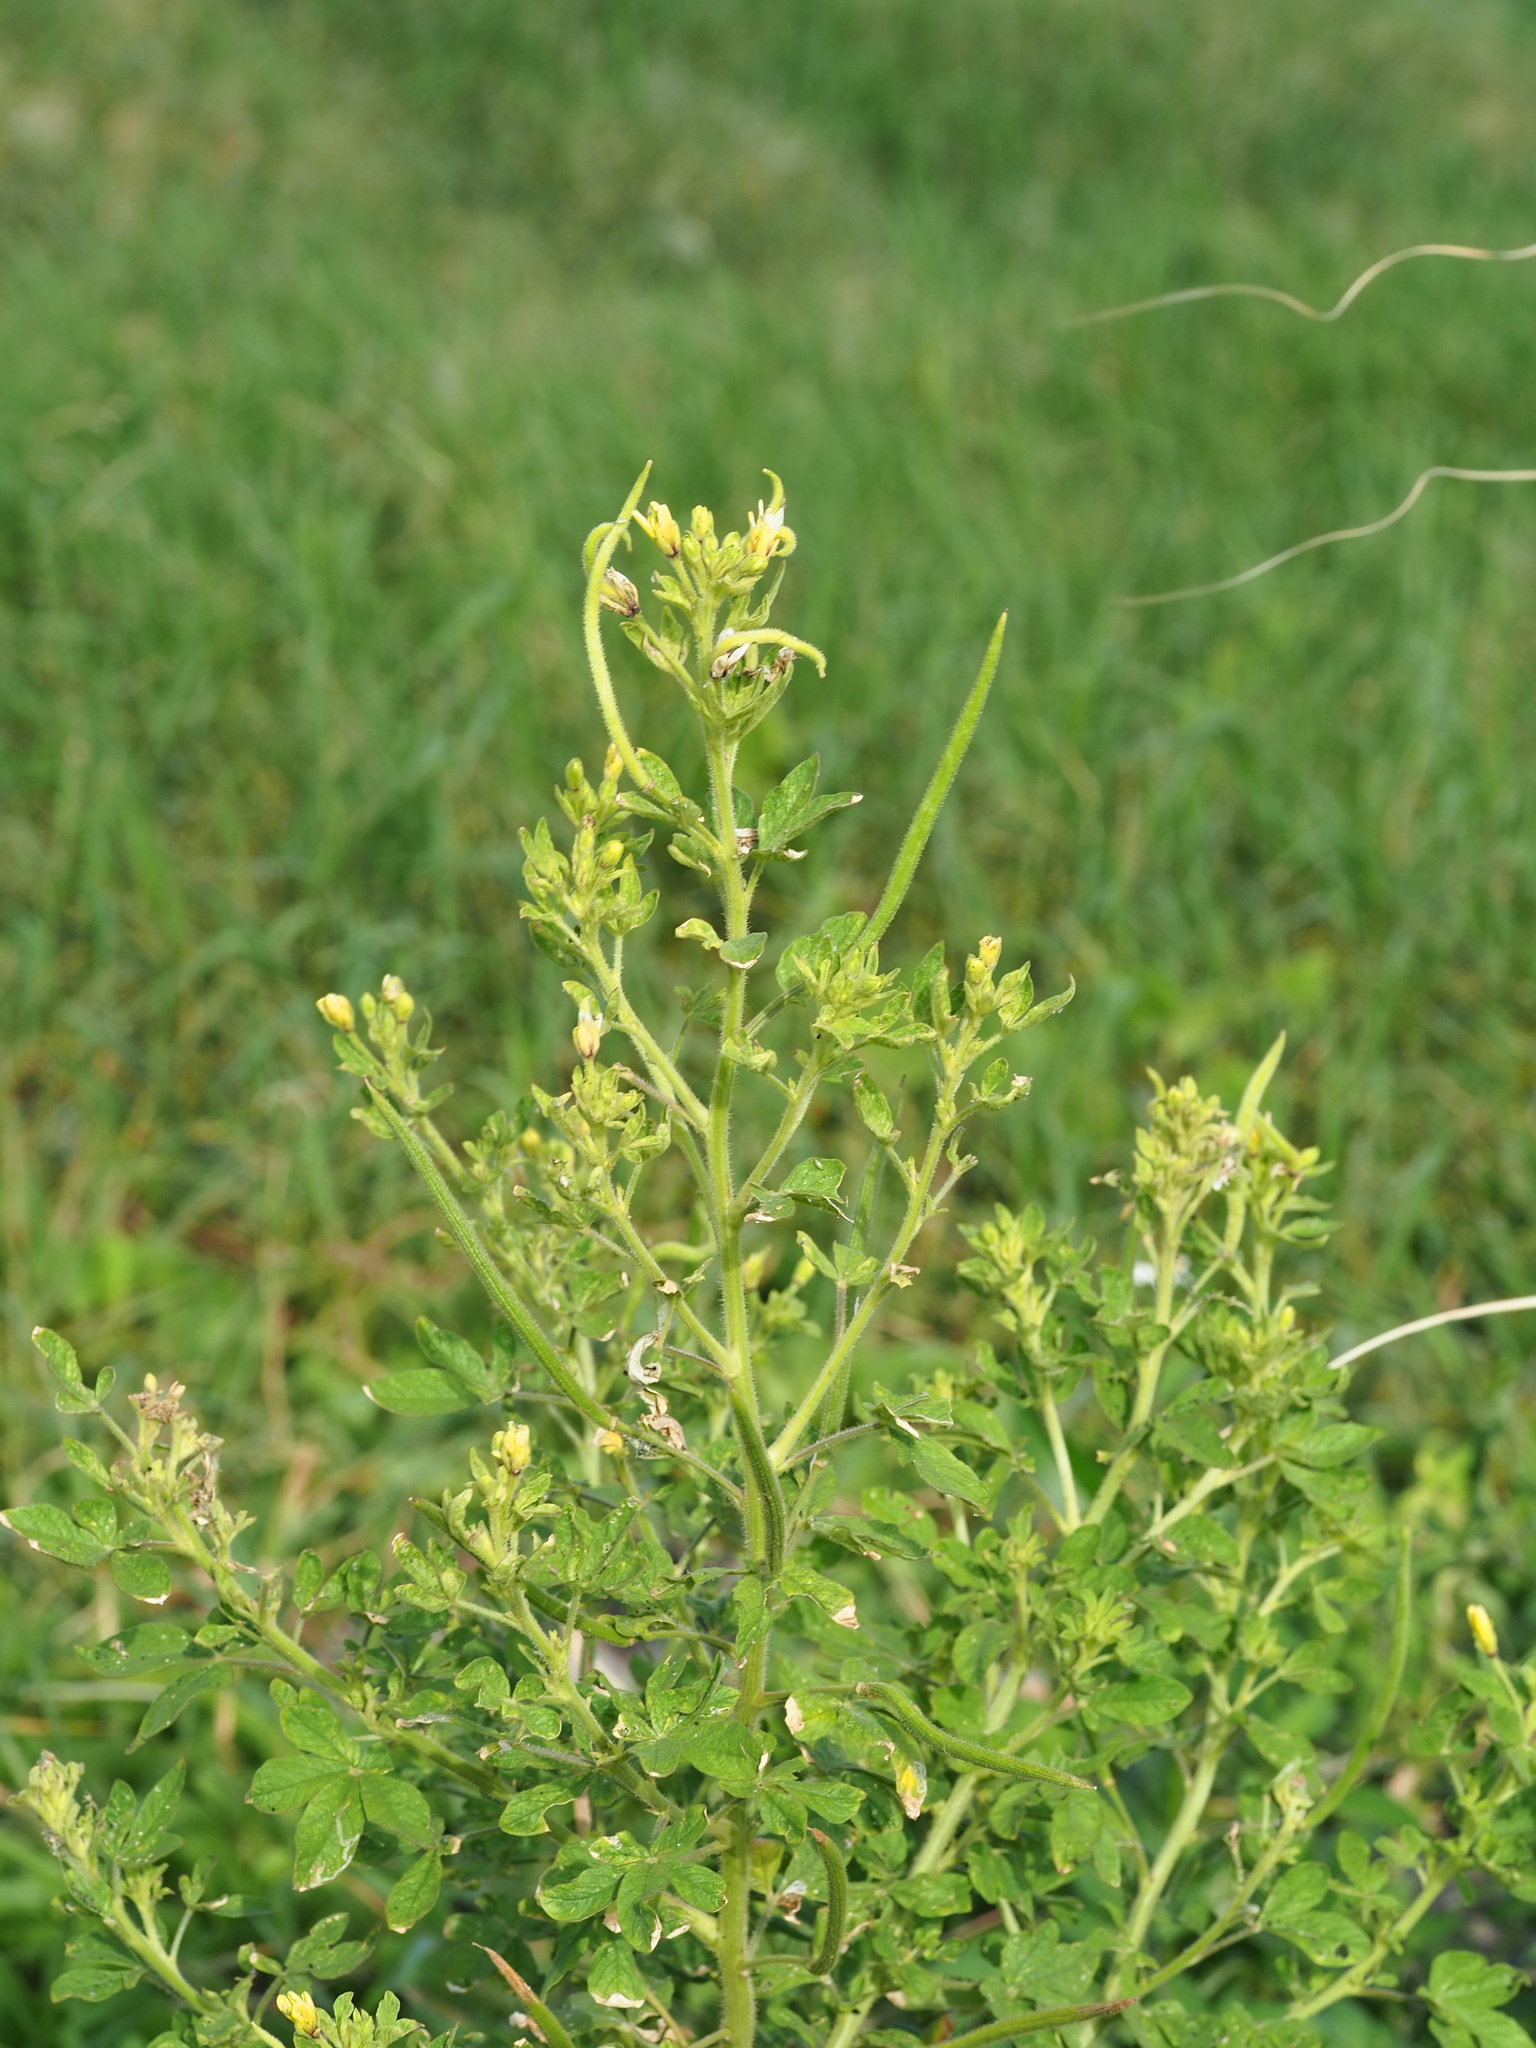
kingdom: Plantae
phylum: Tracheophyta
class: Magnoliopsida
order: Brassicales
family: Cleomaceae
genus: Arivela
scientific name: Arivela viscosa
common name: Asian spiderflower
